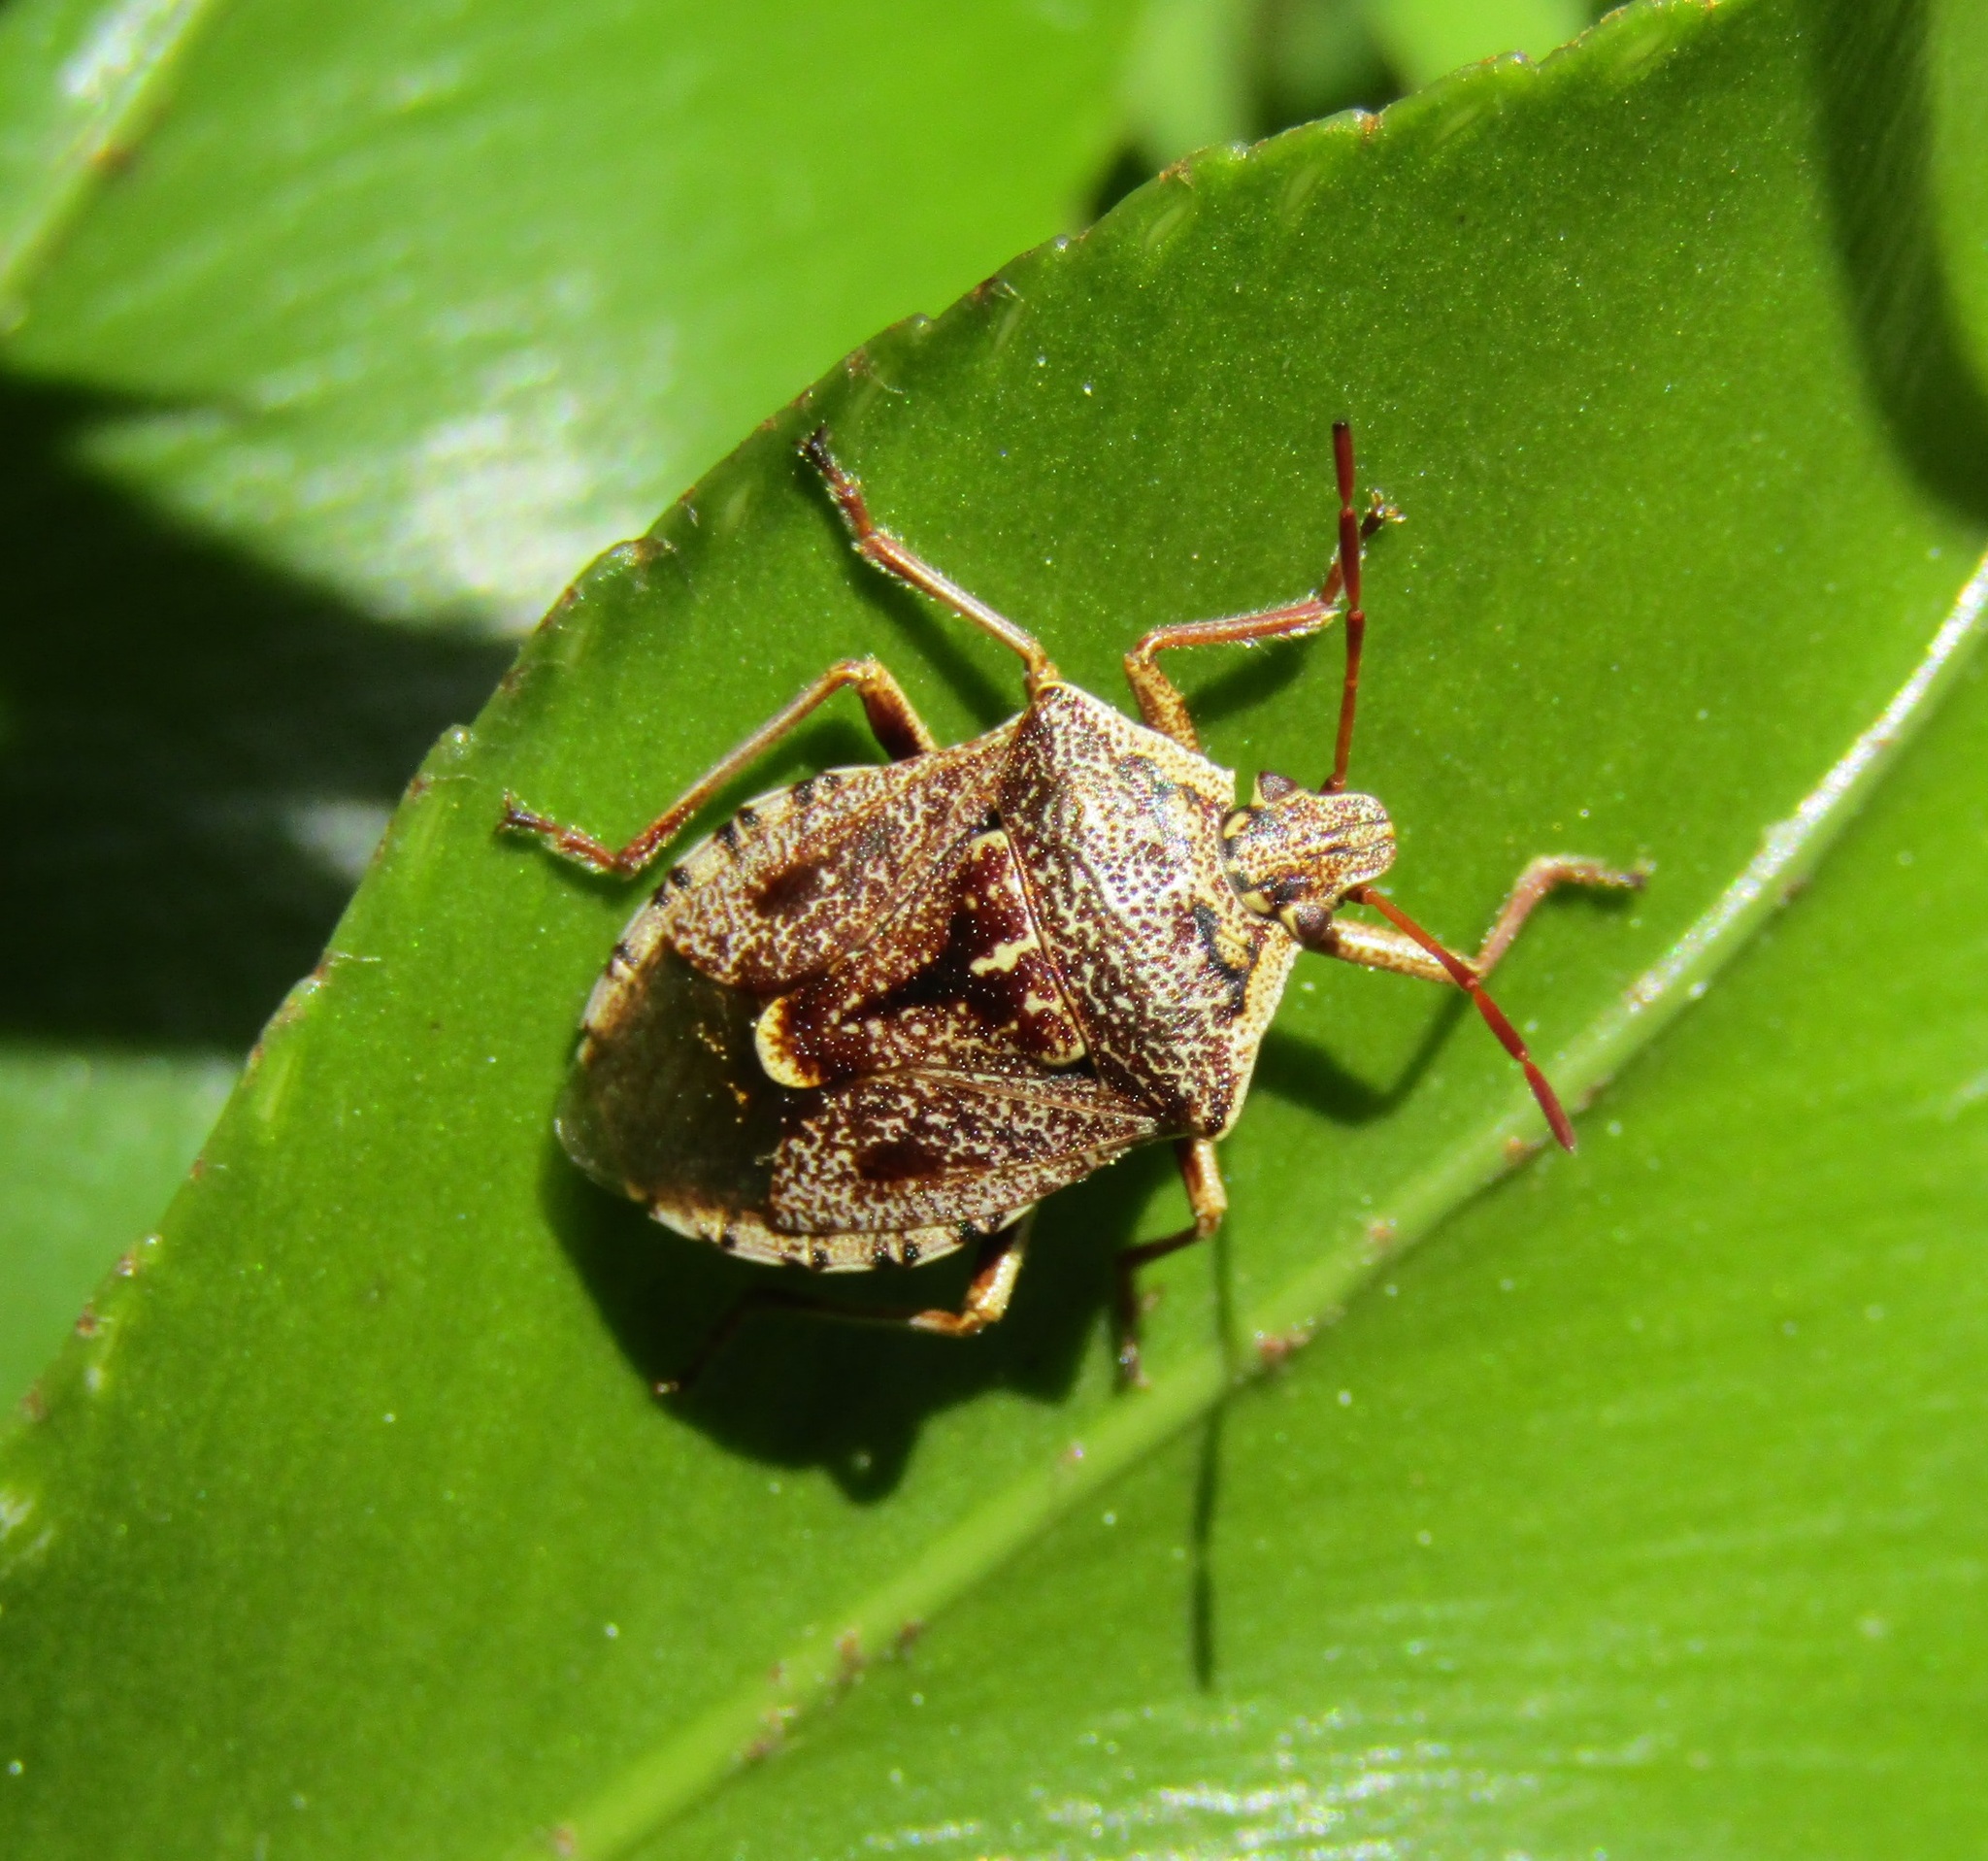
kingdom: Animalia
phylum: Arthropoda
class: Insecta
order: Hemiptera
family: Pentatomidae
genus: Cermatulus
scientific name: Cermatulus nasalis
